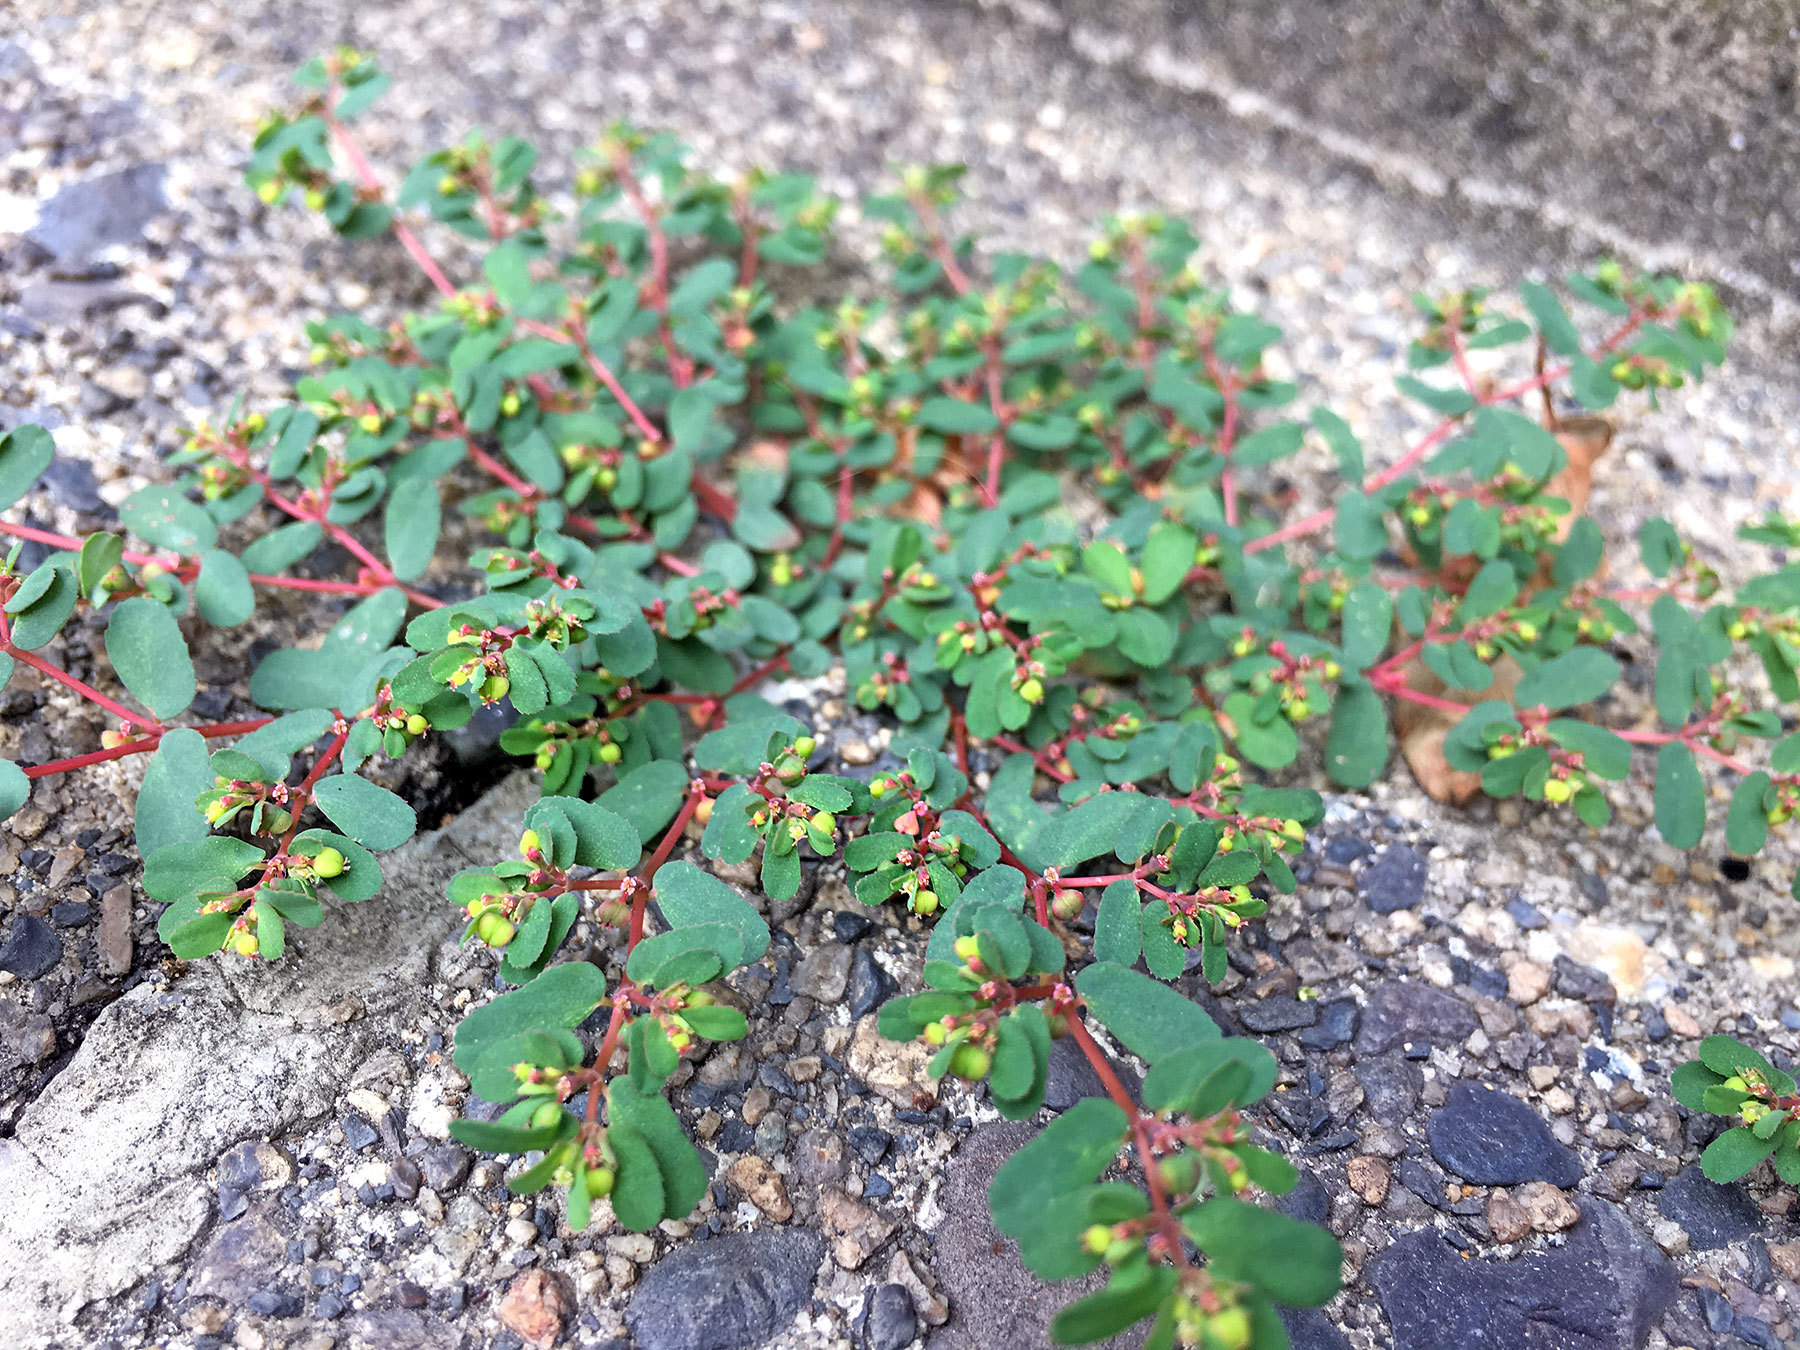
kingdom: Plantae
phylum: Tracheophyta
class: Magnoliopsida
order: Malpighiales
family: Euphorbiaceae
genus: Euphorbia
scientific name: Euphorbia humifusa
